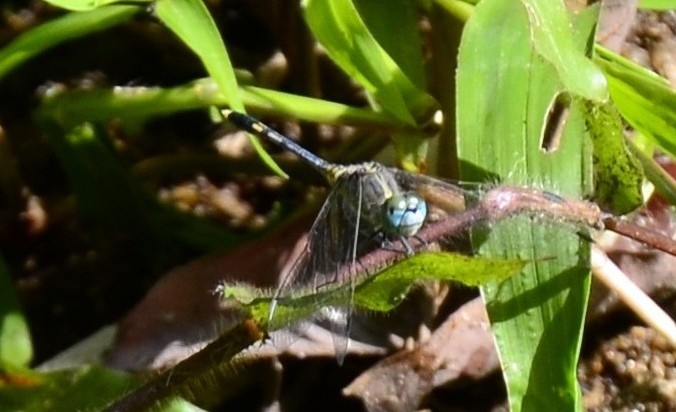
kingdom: Animalia
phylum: Arthropoda
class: Insecta
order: Odonata
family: Libellulidae
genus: Diplacodes
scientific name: Diplacodes trivialis
